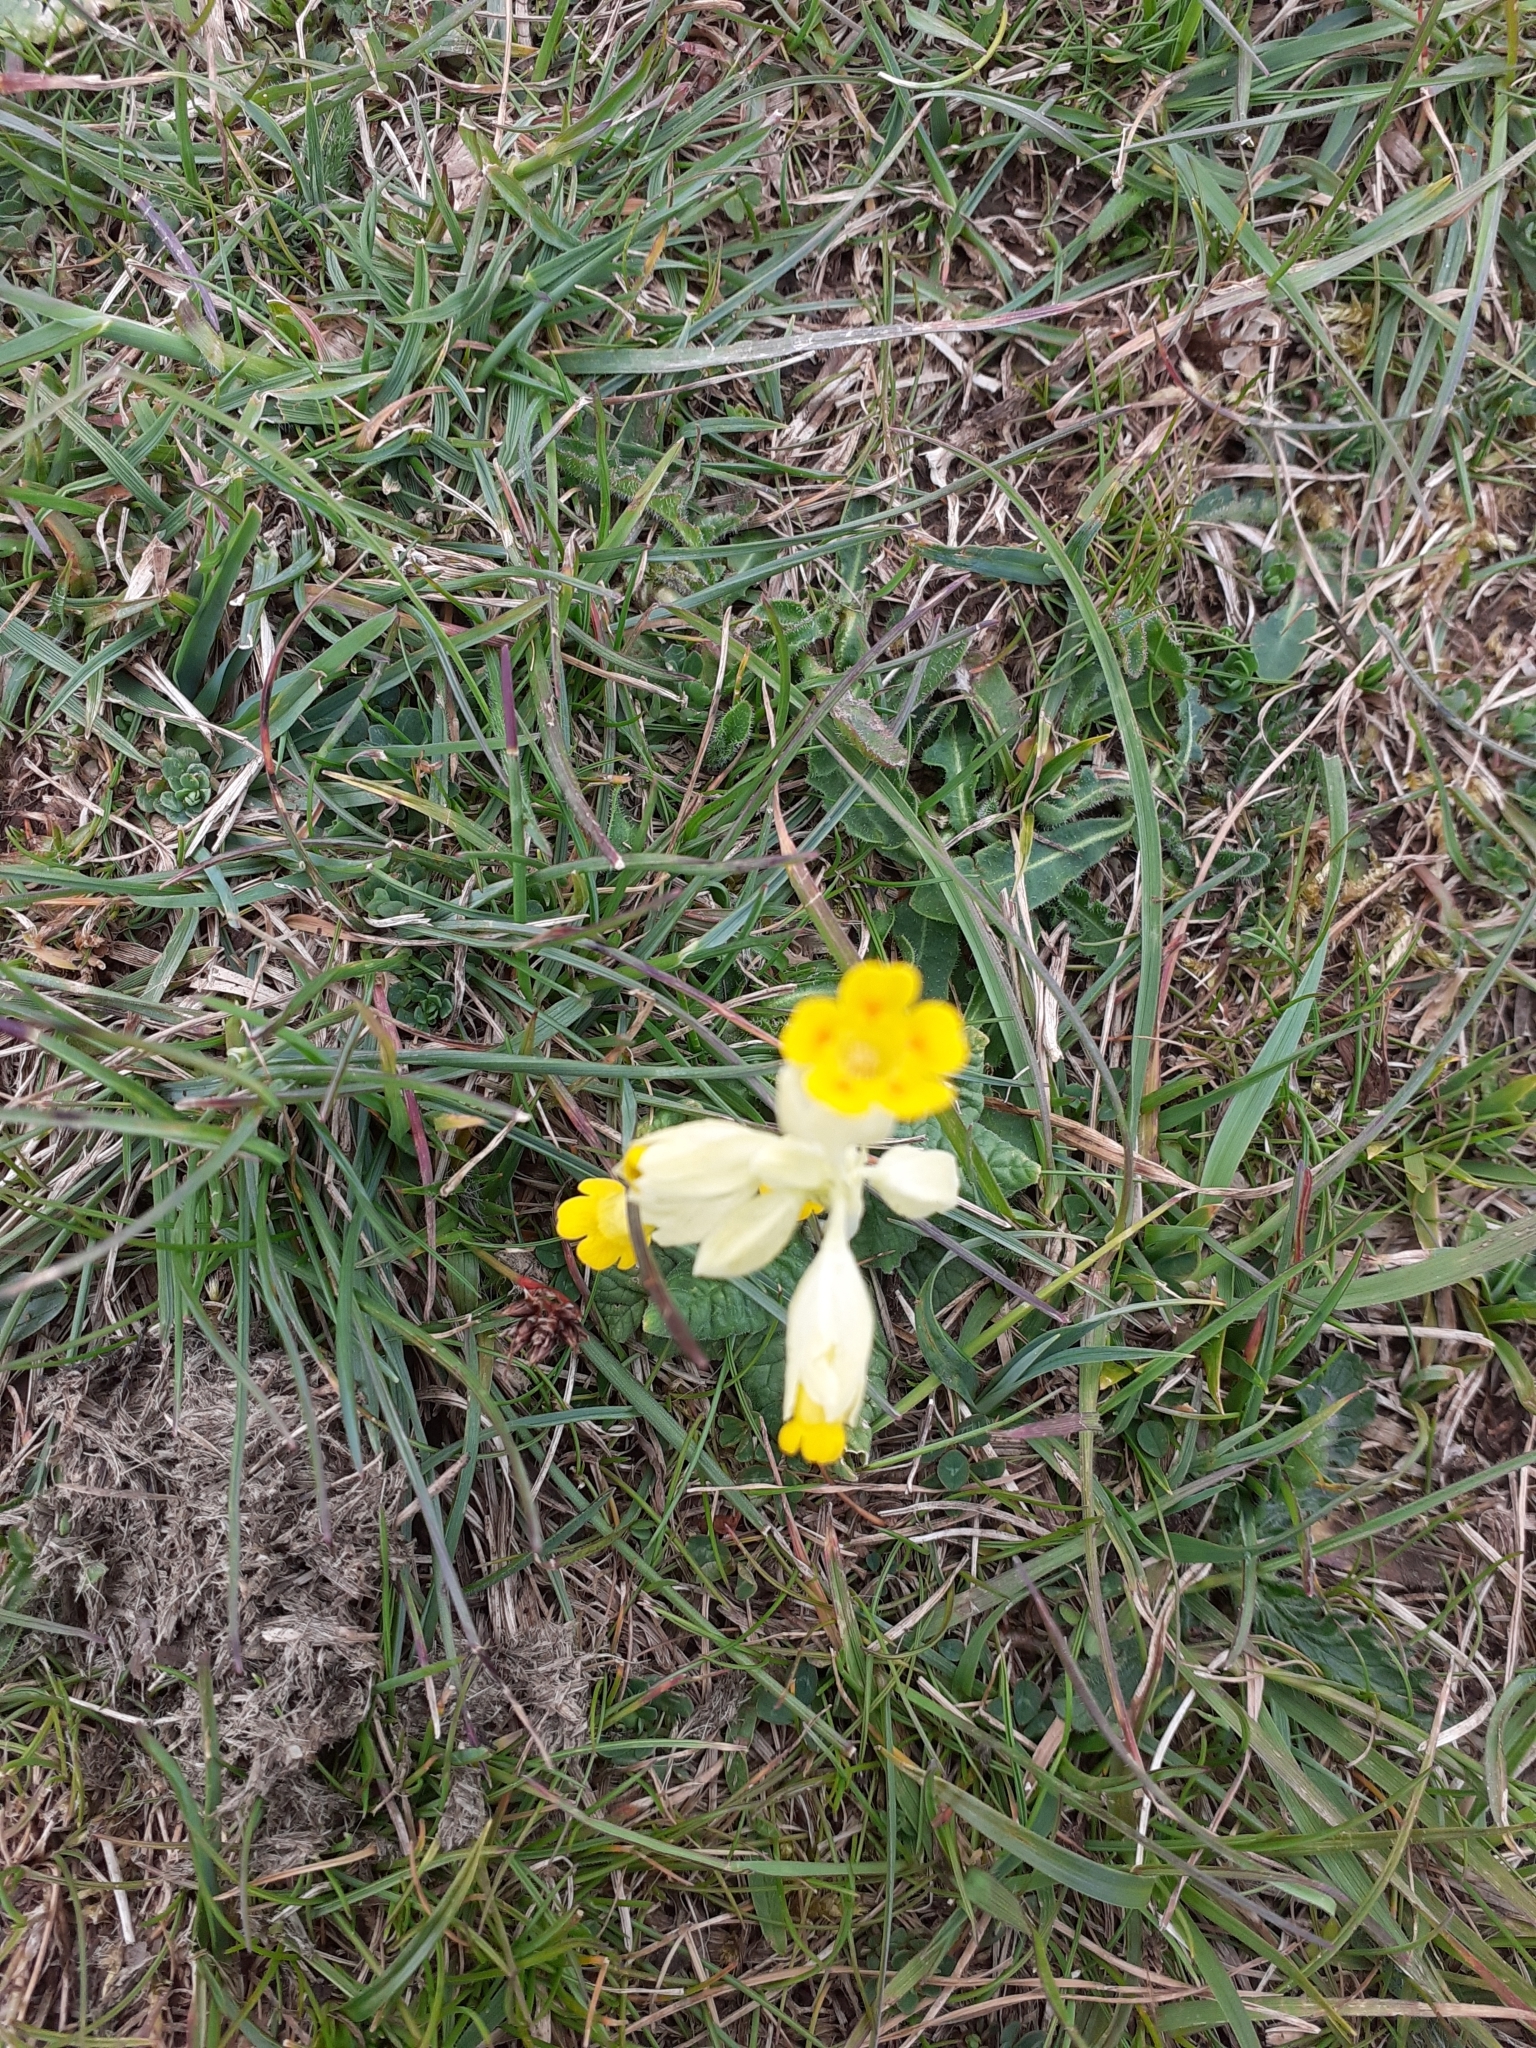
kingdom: Plantae
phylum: Tracheophyta
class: Magnoliopsida
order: Ericales
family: Primulaceae
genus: Primula
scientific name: Primula veris
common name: Cowslip
